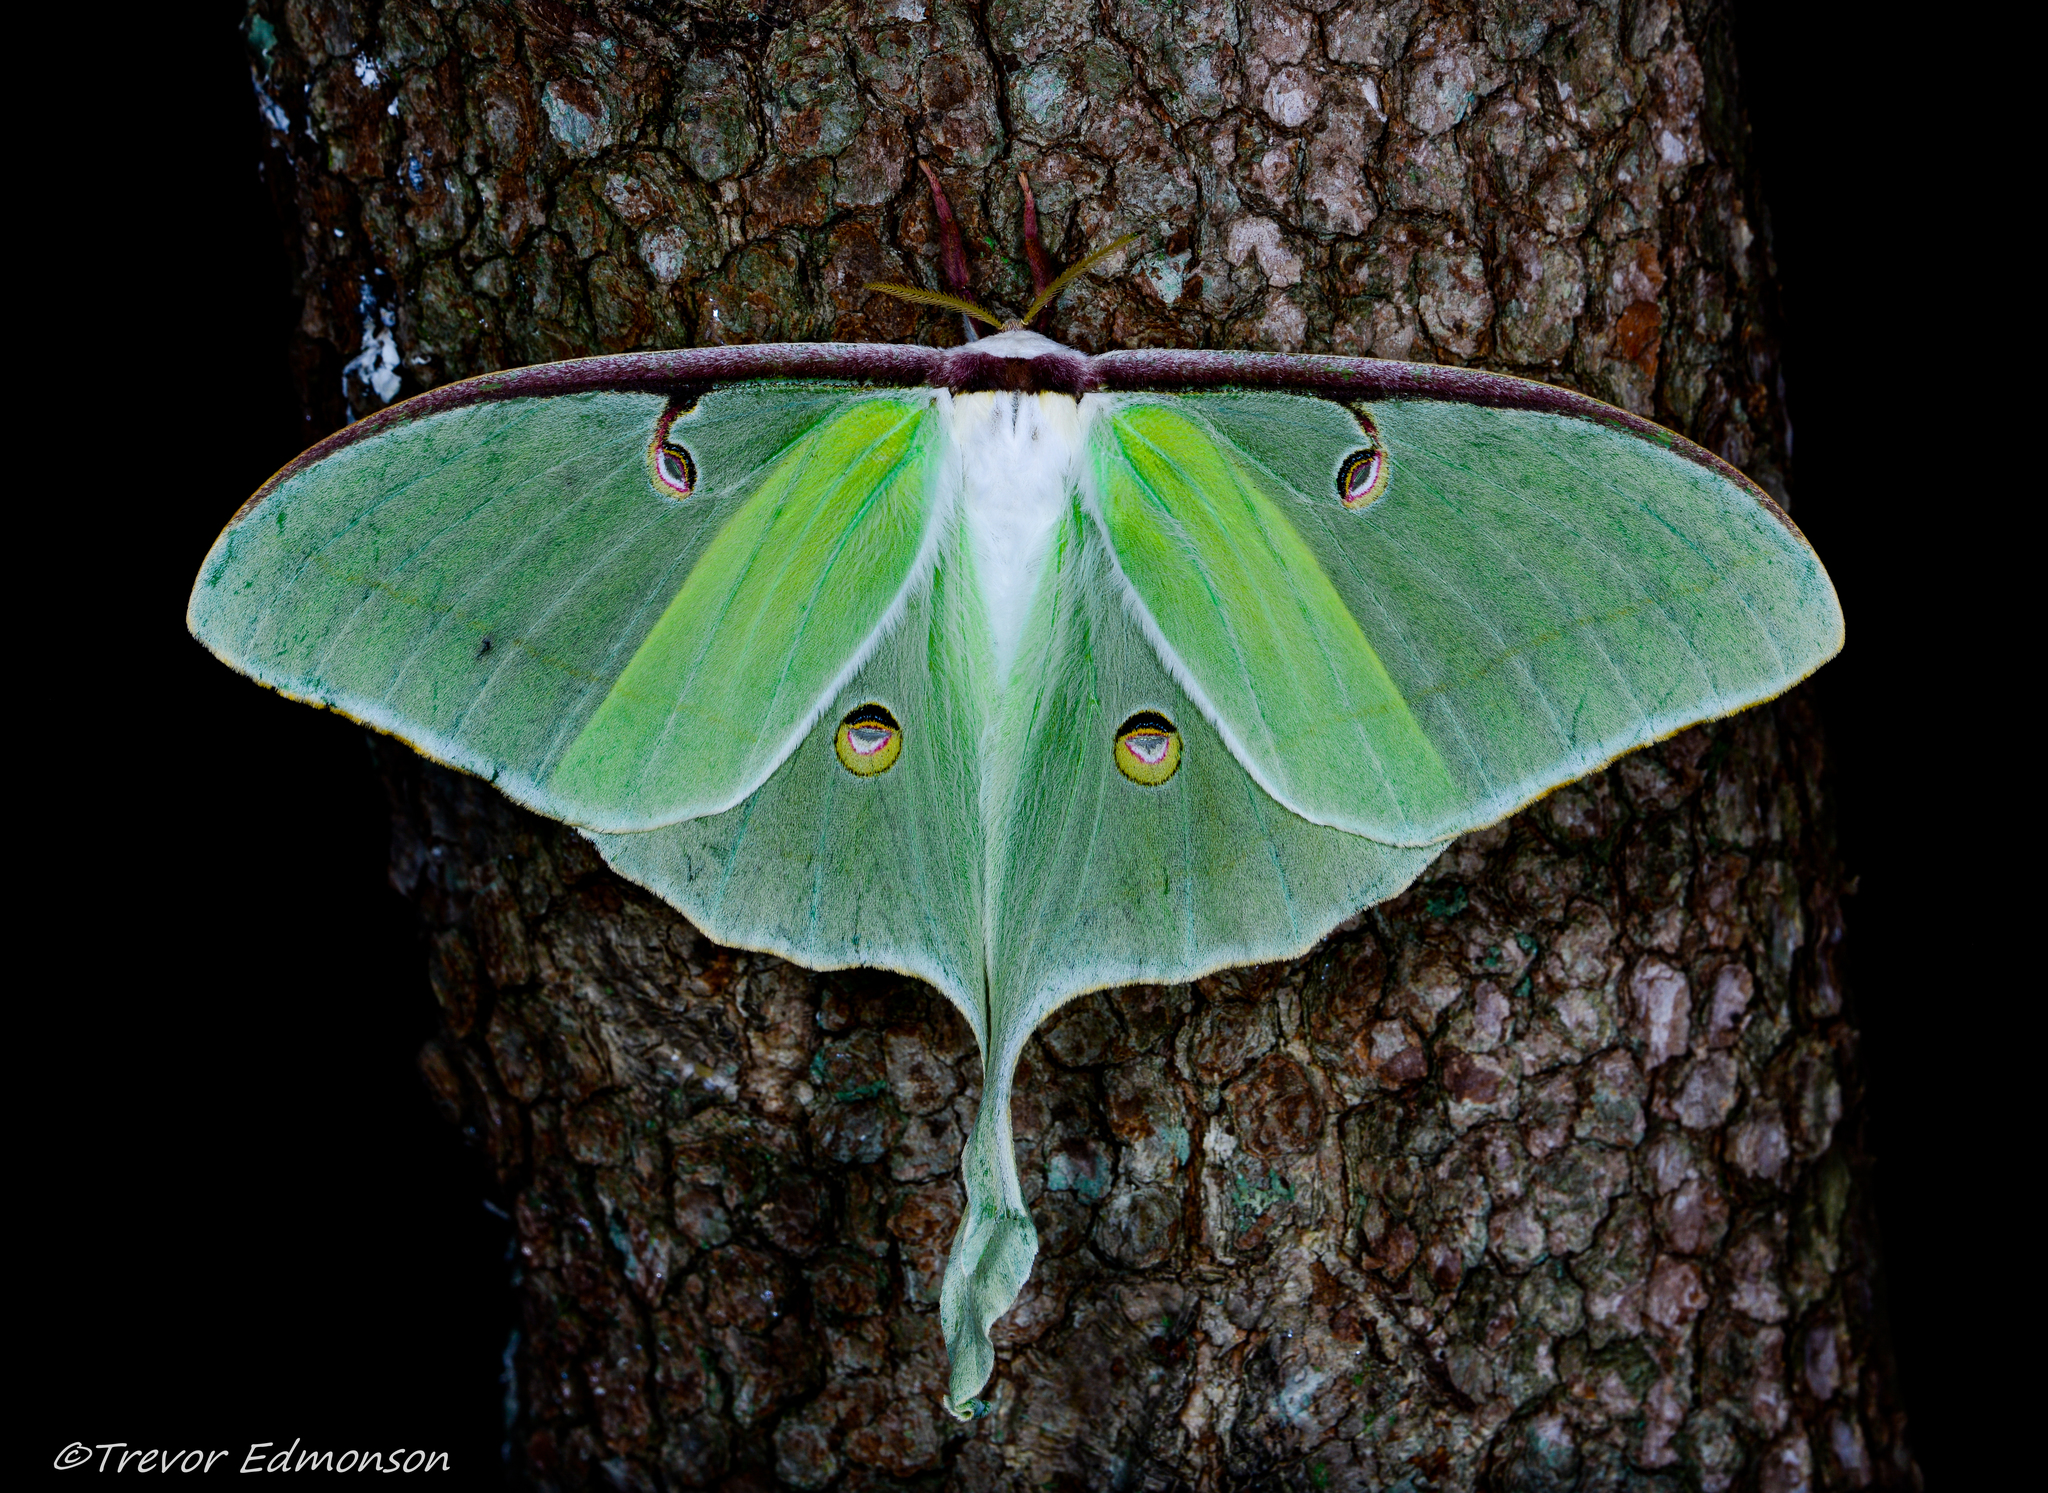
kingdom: Animalia
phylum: Arthropoda
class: Insecta
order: Lepidoptera
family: Saturniidae
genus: Actias
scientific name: Actias luna
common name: Luna moth
